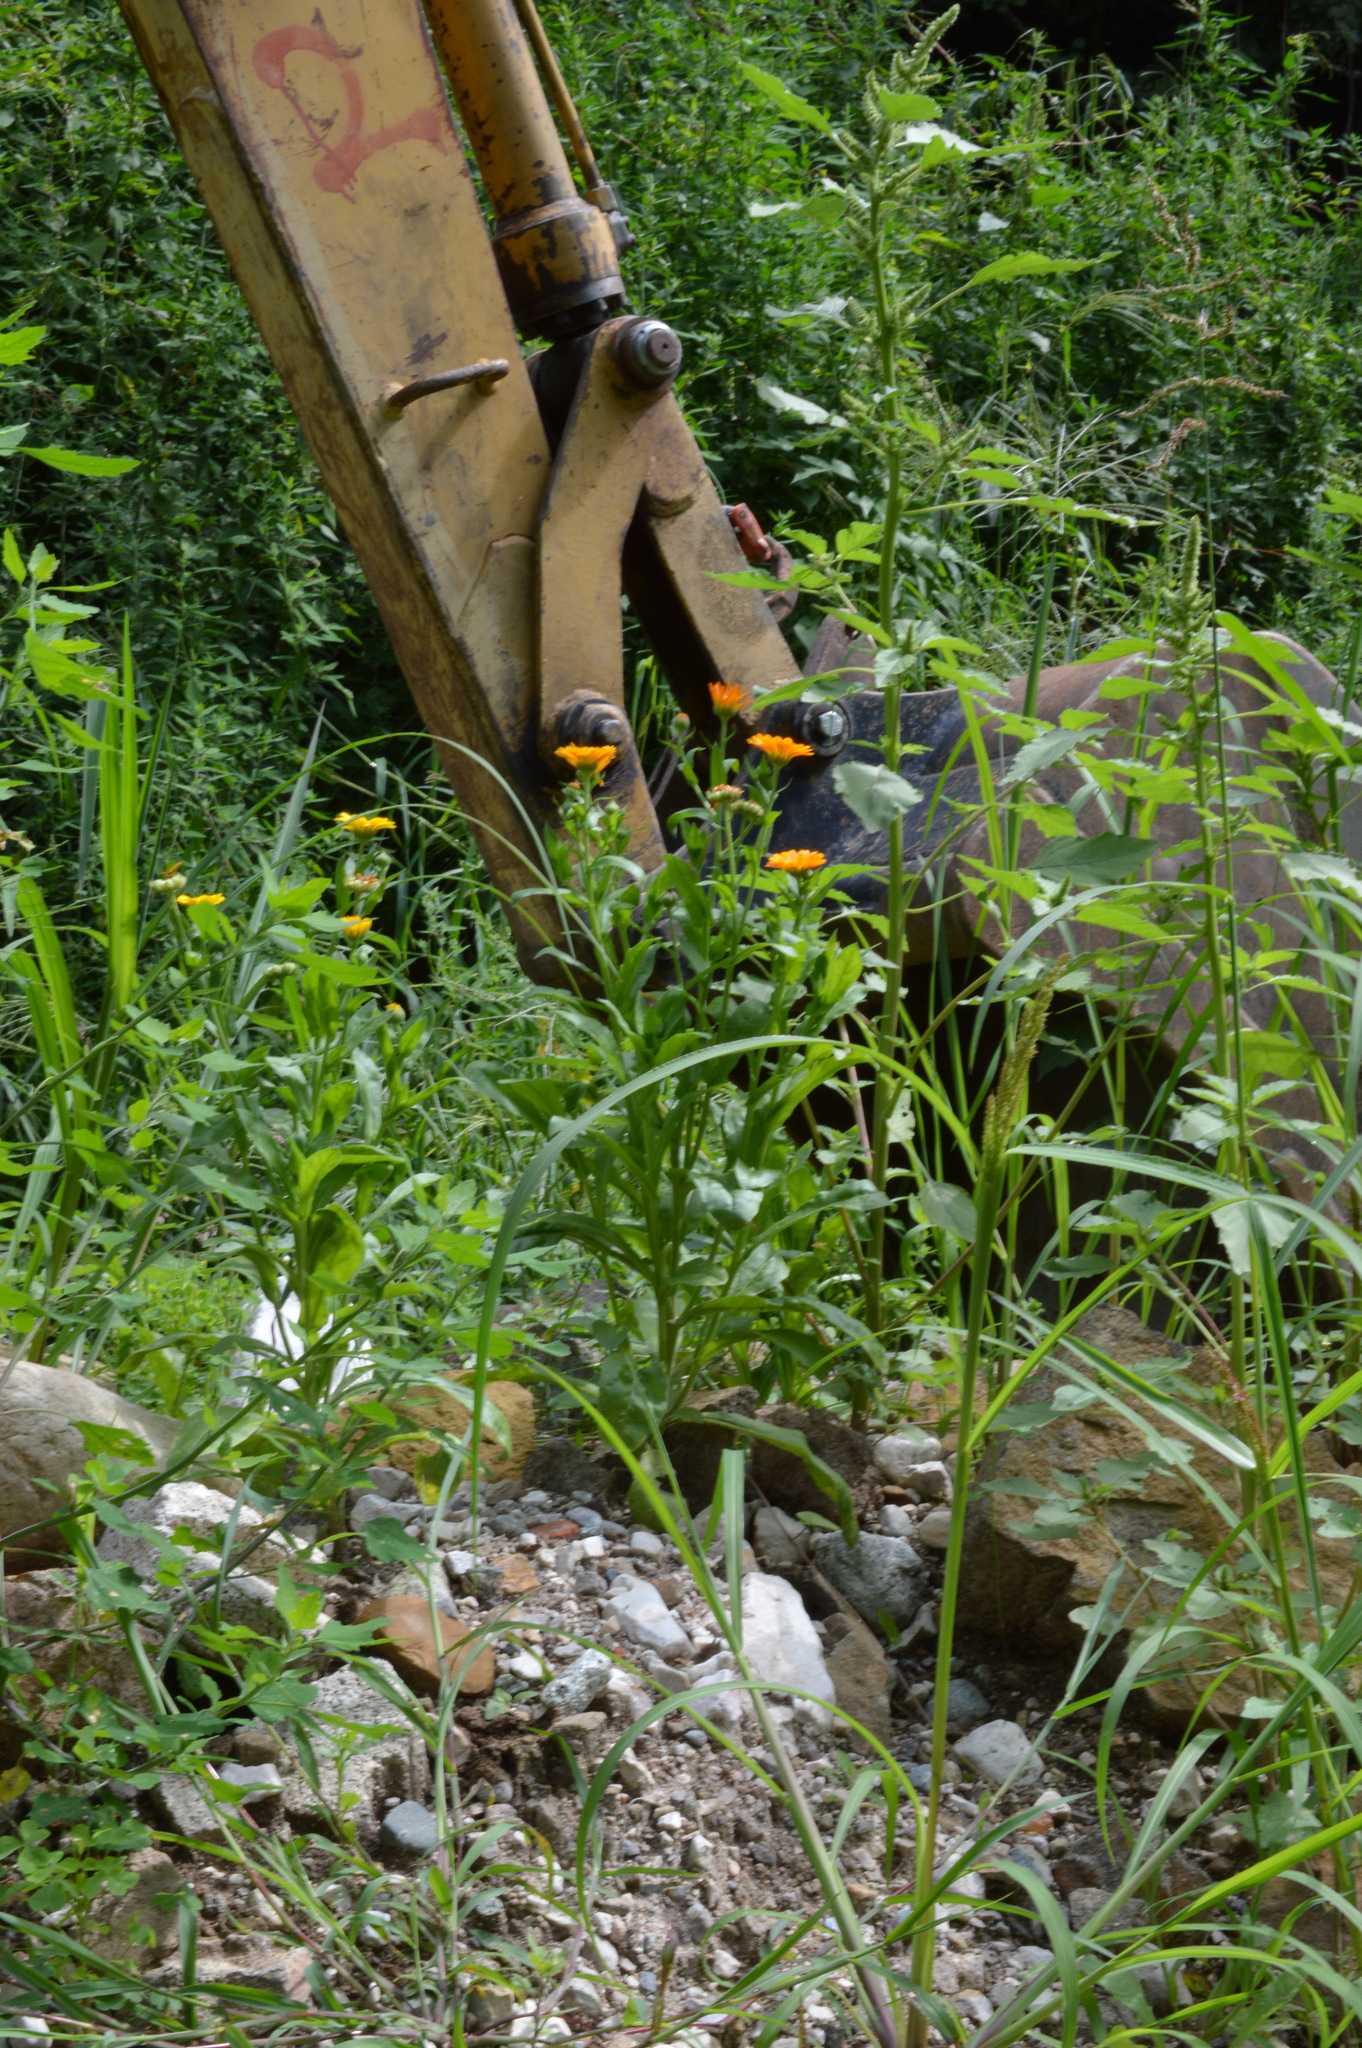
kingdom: Plantae
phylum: Tracheophyta
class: Magnoliopsida
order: Asterales
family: Asteraceae
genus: Calendula
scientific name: Calendula officinalis
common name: Pot marigold
